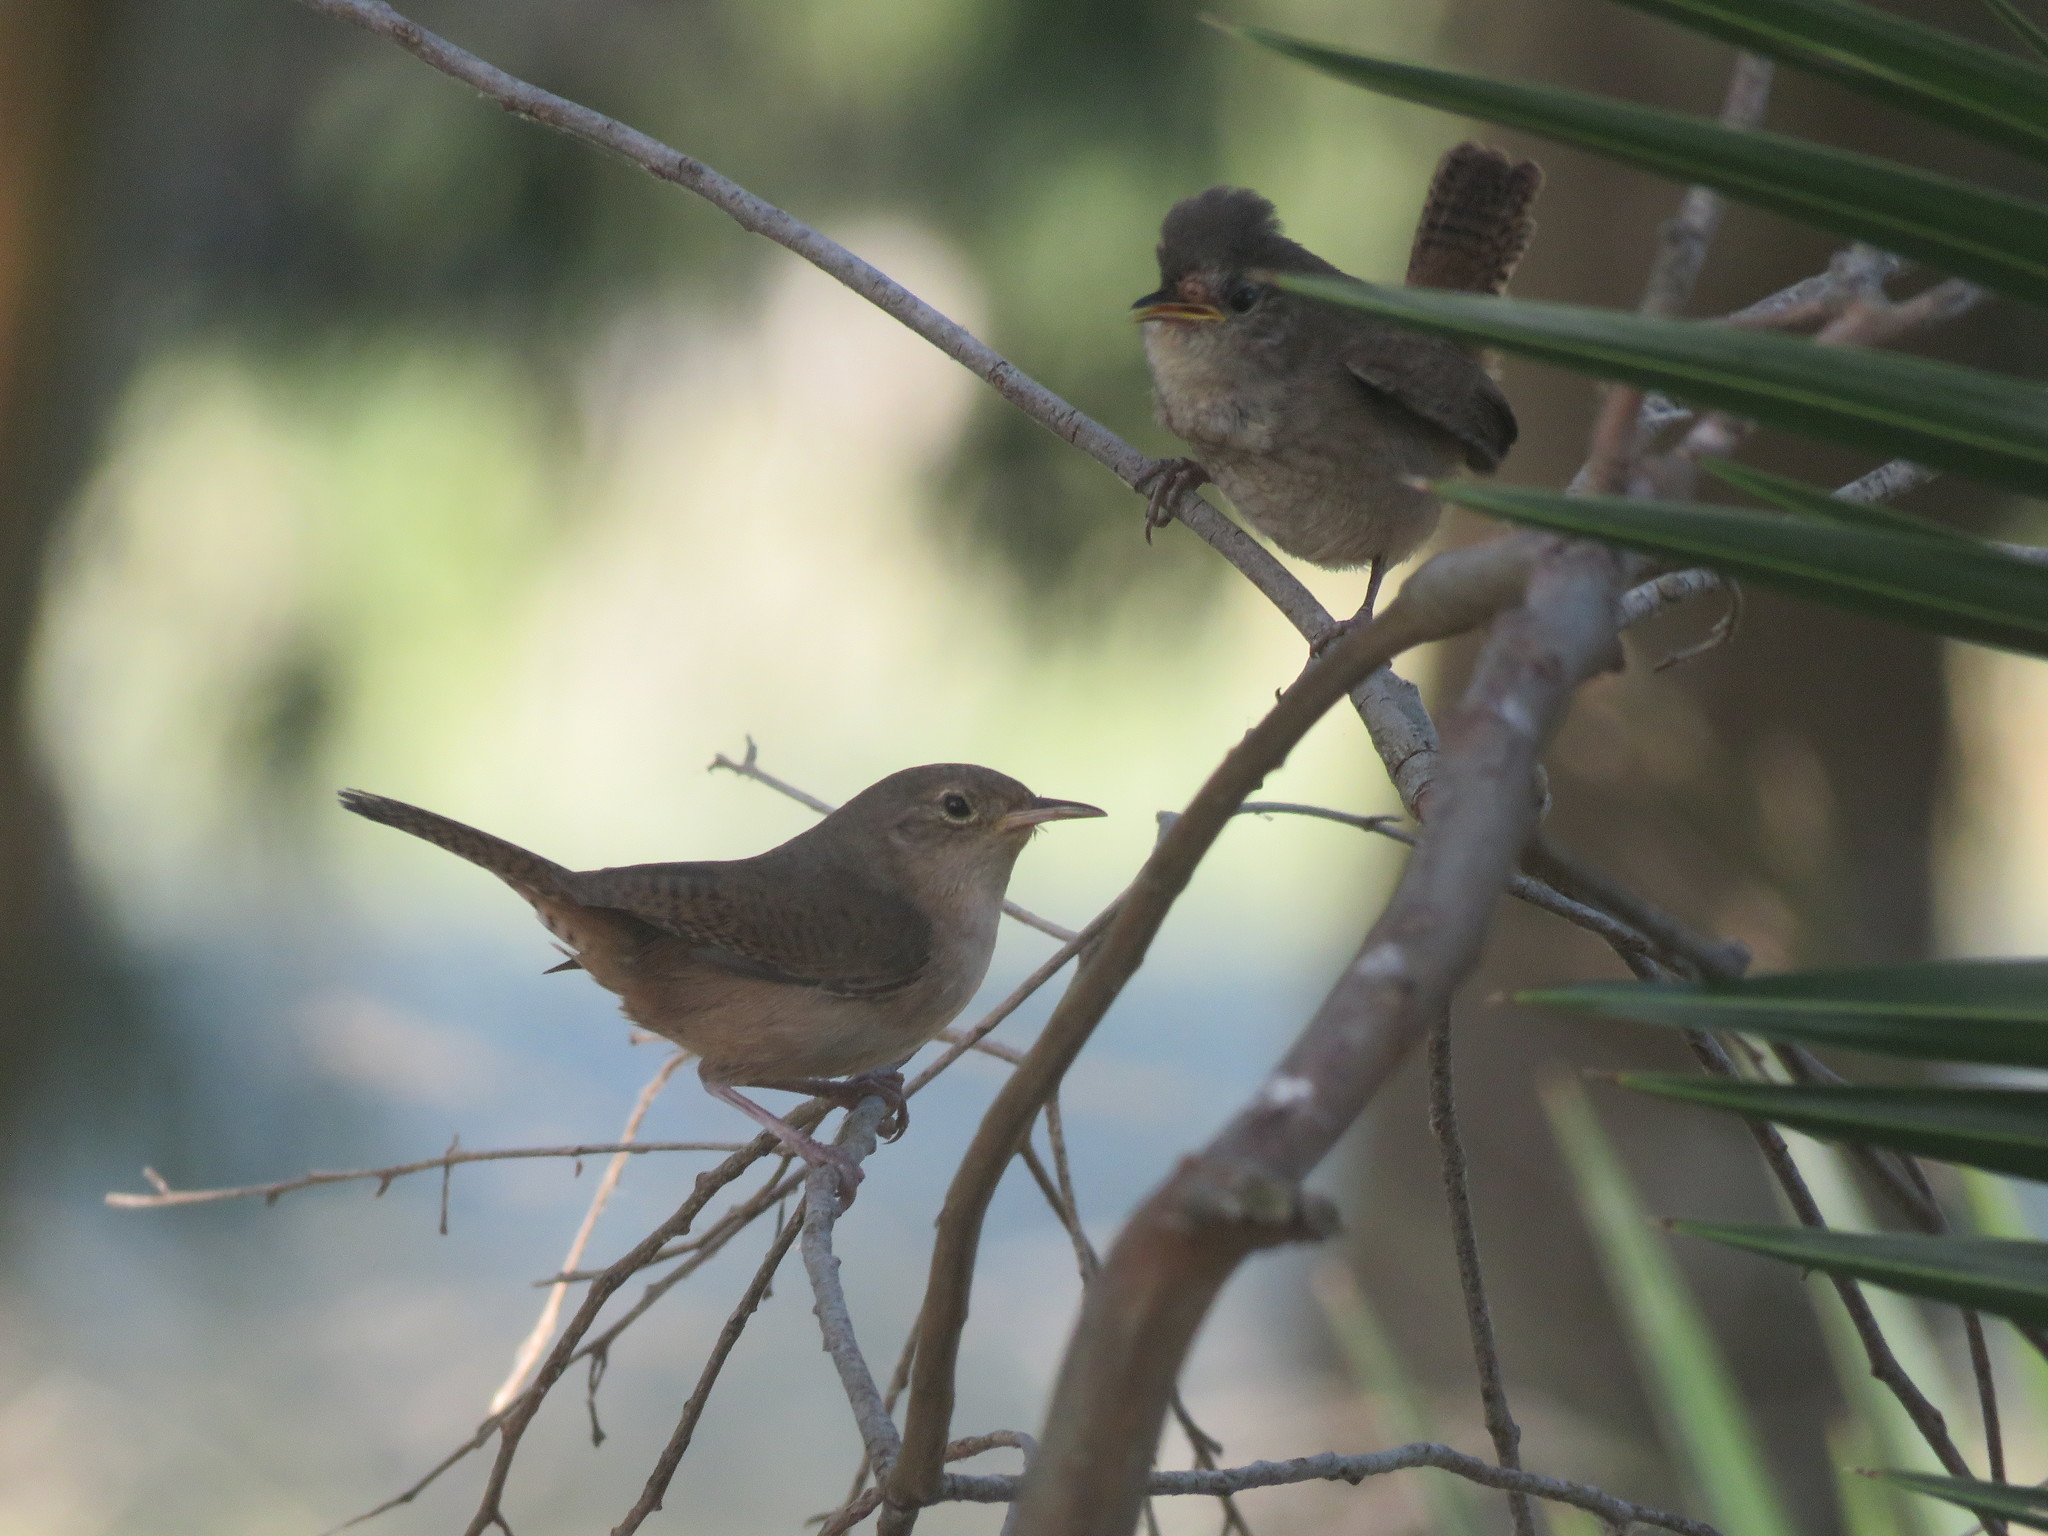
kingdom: Animalia
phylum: Chordata
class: Aves
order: Passeriformes
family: Troglodytidae
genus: Troglodytes
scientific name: Troglodytes aedon
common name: House wren
